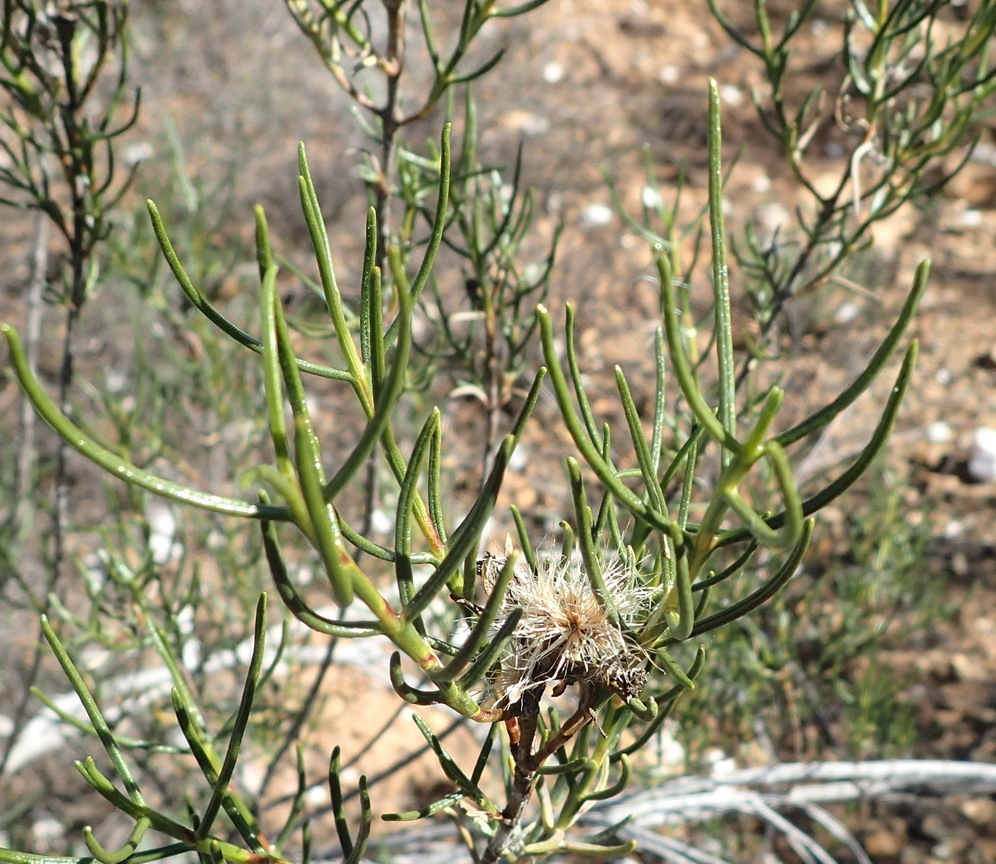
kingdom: Plantae
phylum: Tracheophyta
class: Magnoliopsida
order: Asterales
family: Asteraceae
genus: Pteronia
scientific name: Pteronia flexicaulis
